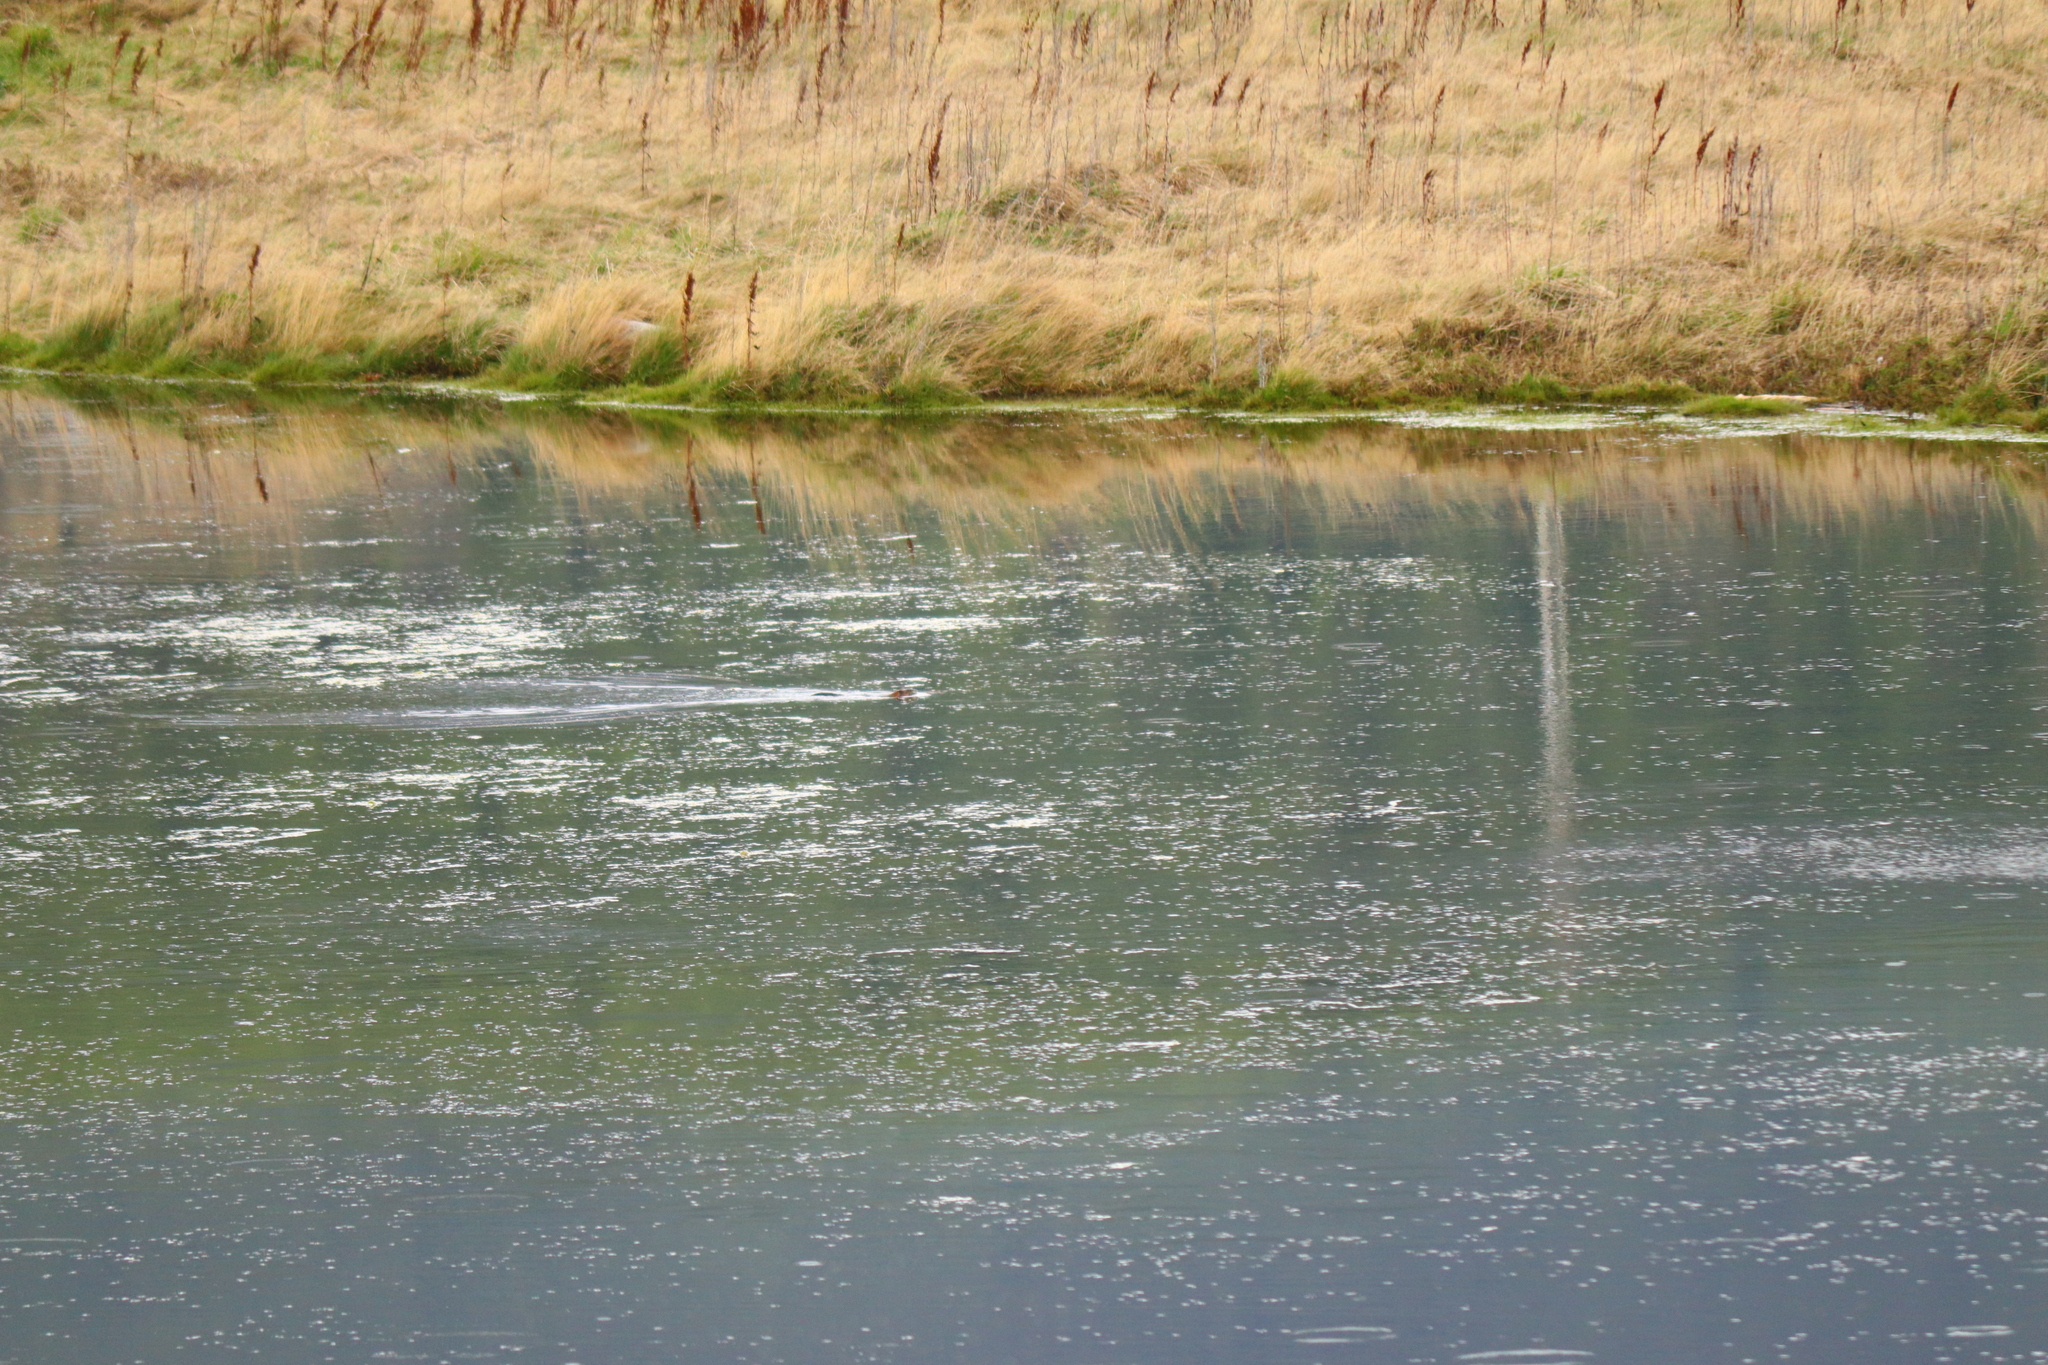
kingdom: Animalia
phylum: Chordata
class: Mammalia
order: Rodentia
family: Cricetidae
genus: Ondatra
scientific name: Ondatra zibethicus
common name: Muskrat
